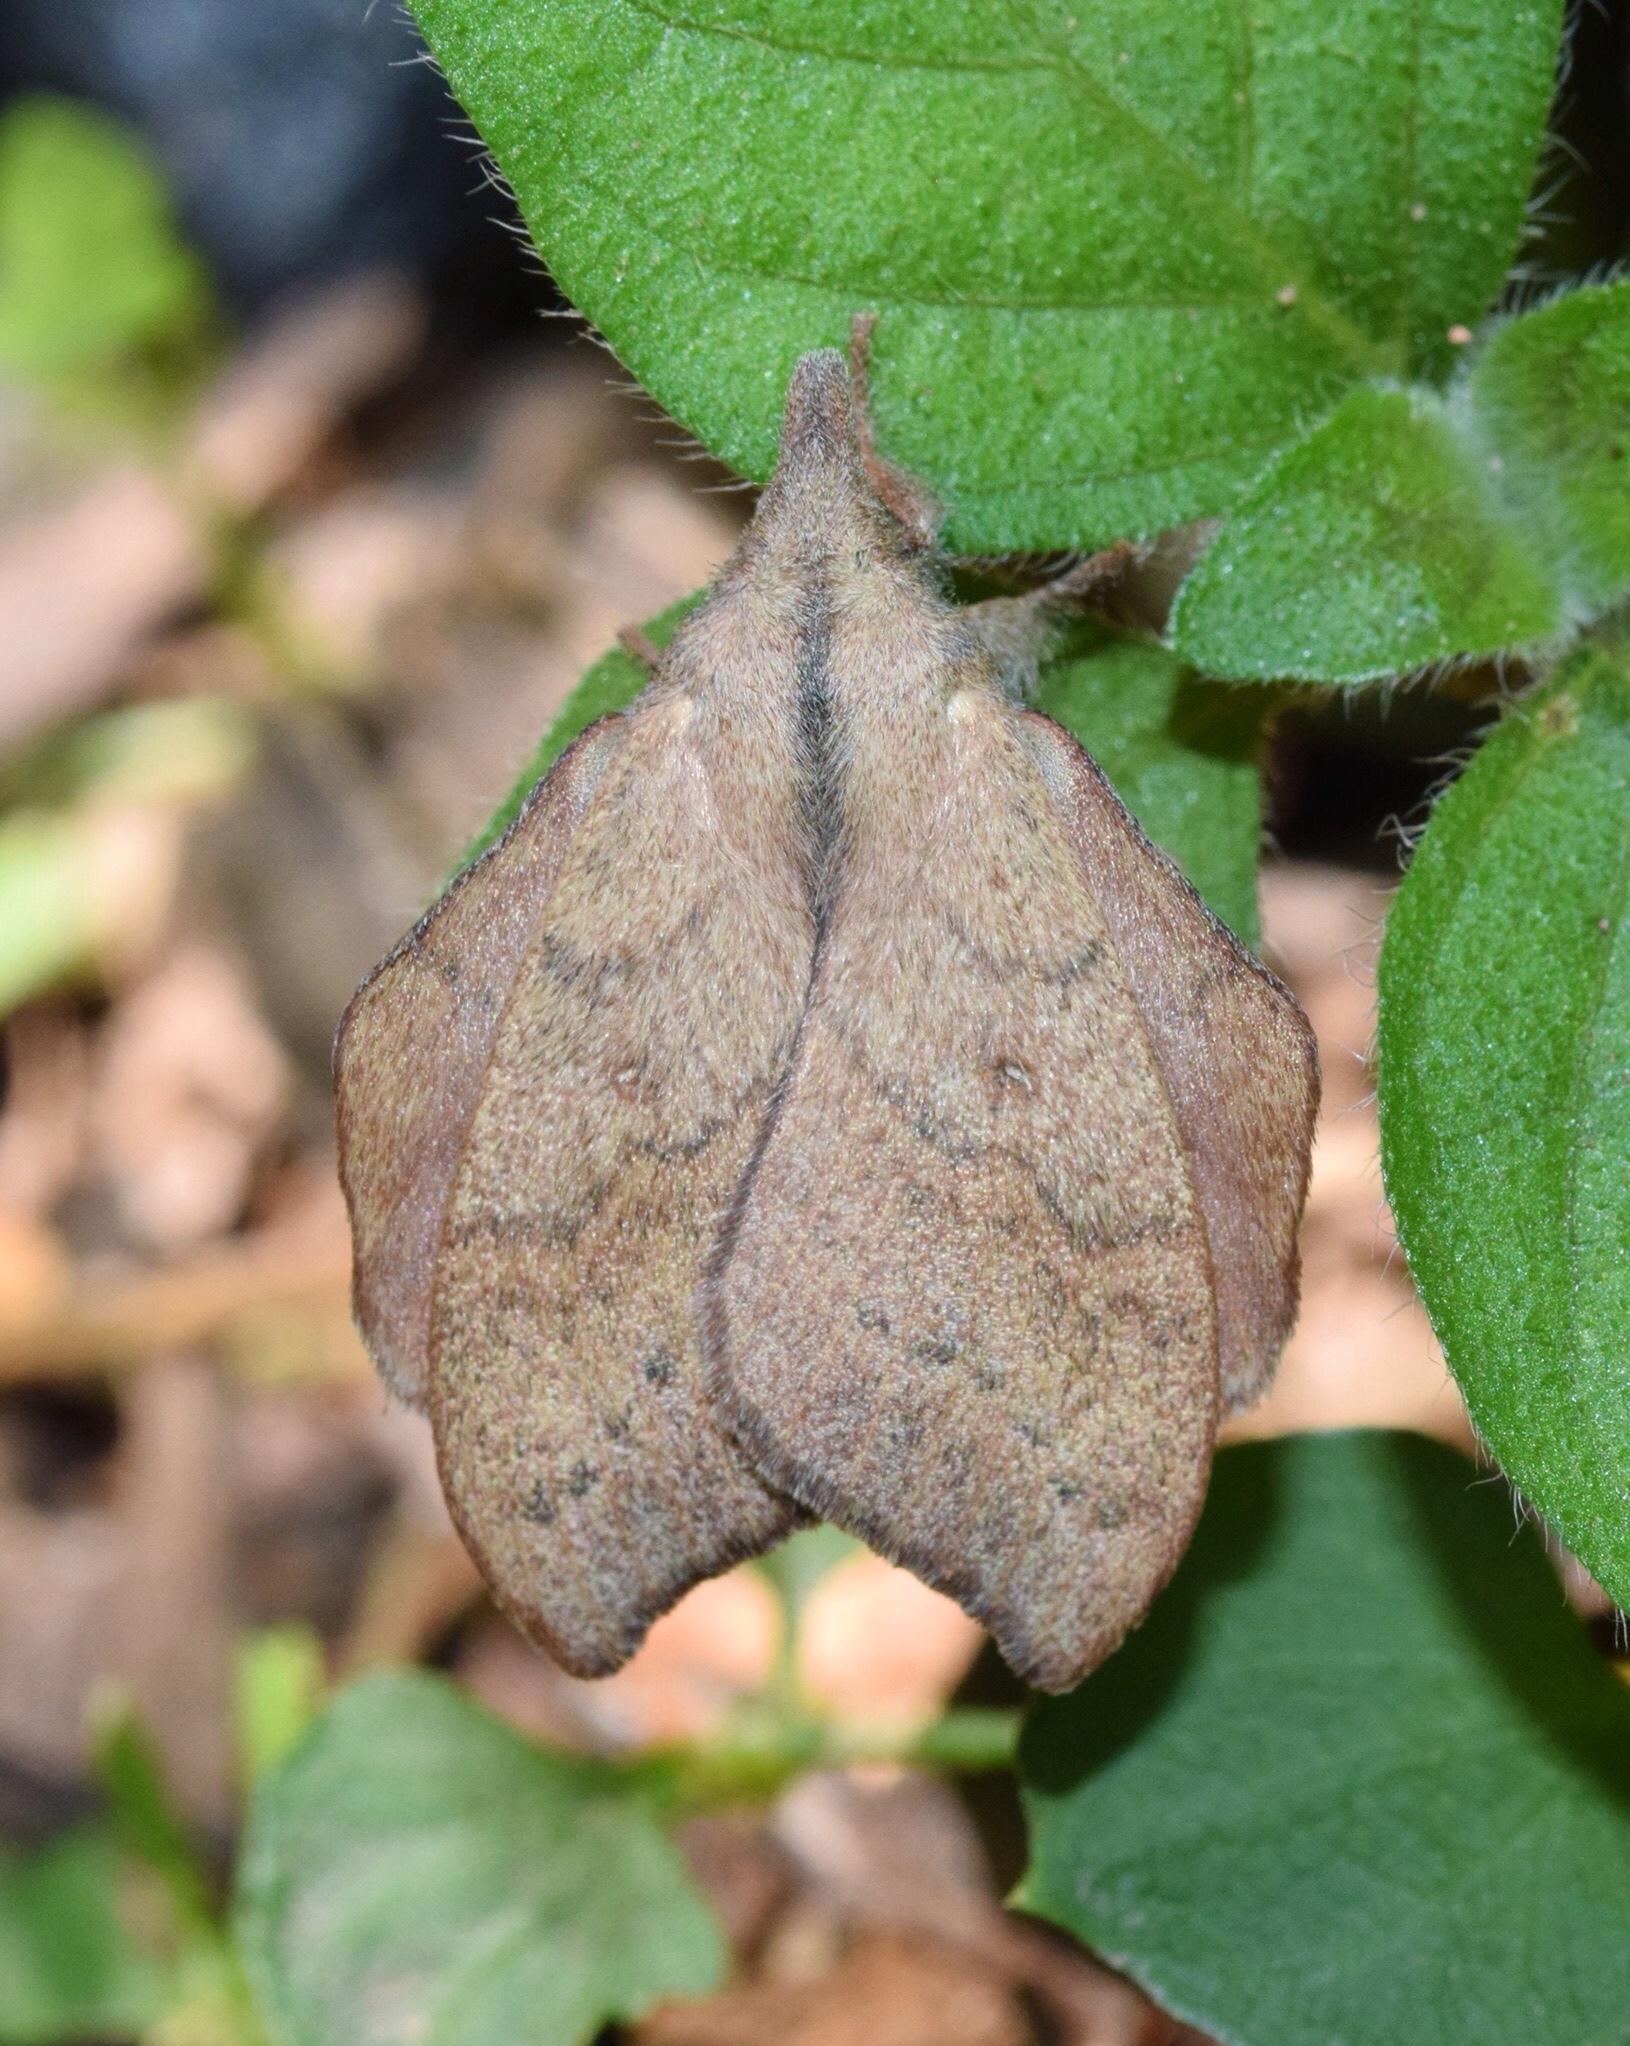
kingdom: Animalia
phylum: Arthropoda
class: Insecta
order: Lepidoptera
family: Lasiocampidae
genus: Leipoxais
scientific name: Leipoxais peraffinis
